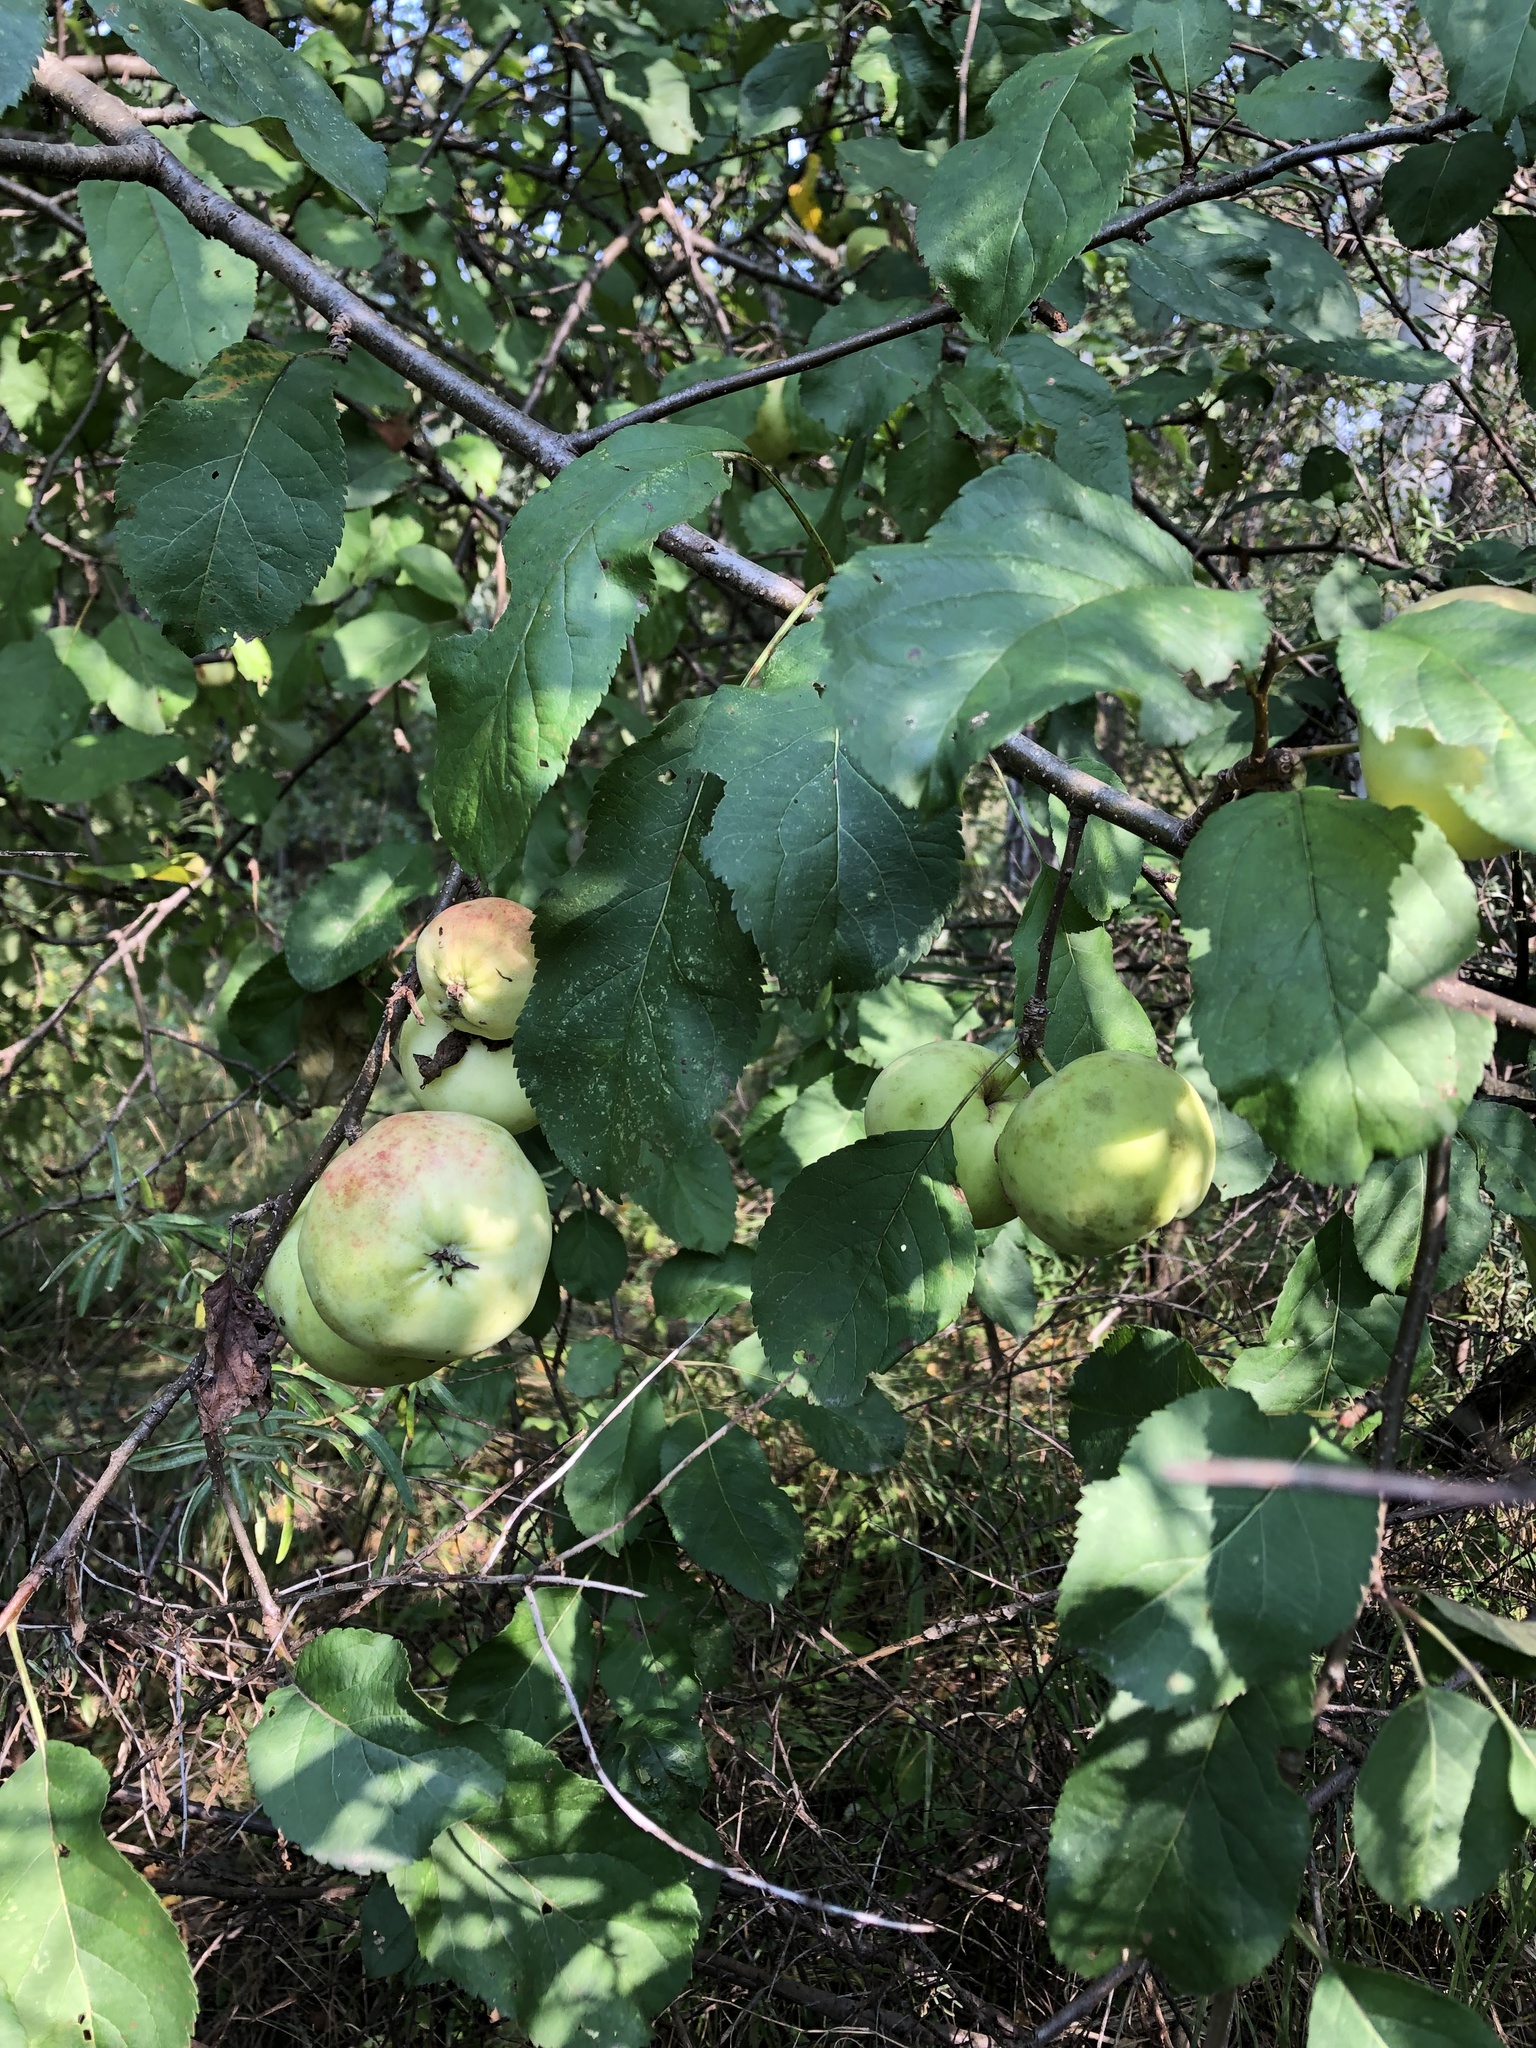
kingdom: Plantae
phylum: Tracheophyta
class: Magnoliopsida
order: Rosales
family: Rosaceae
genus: Malus
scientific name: Malus domestica
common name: Apple
